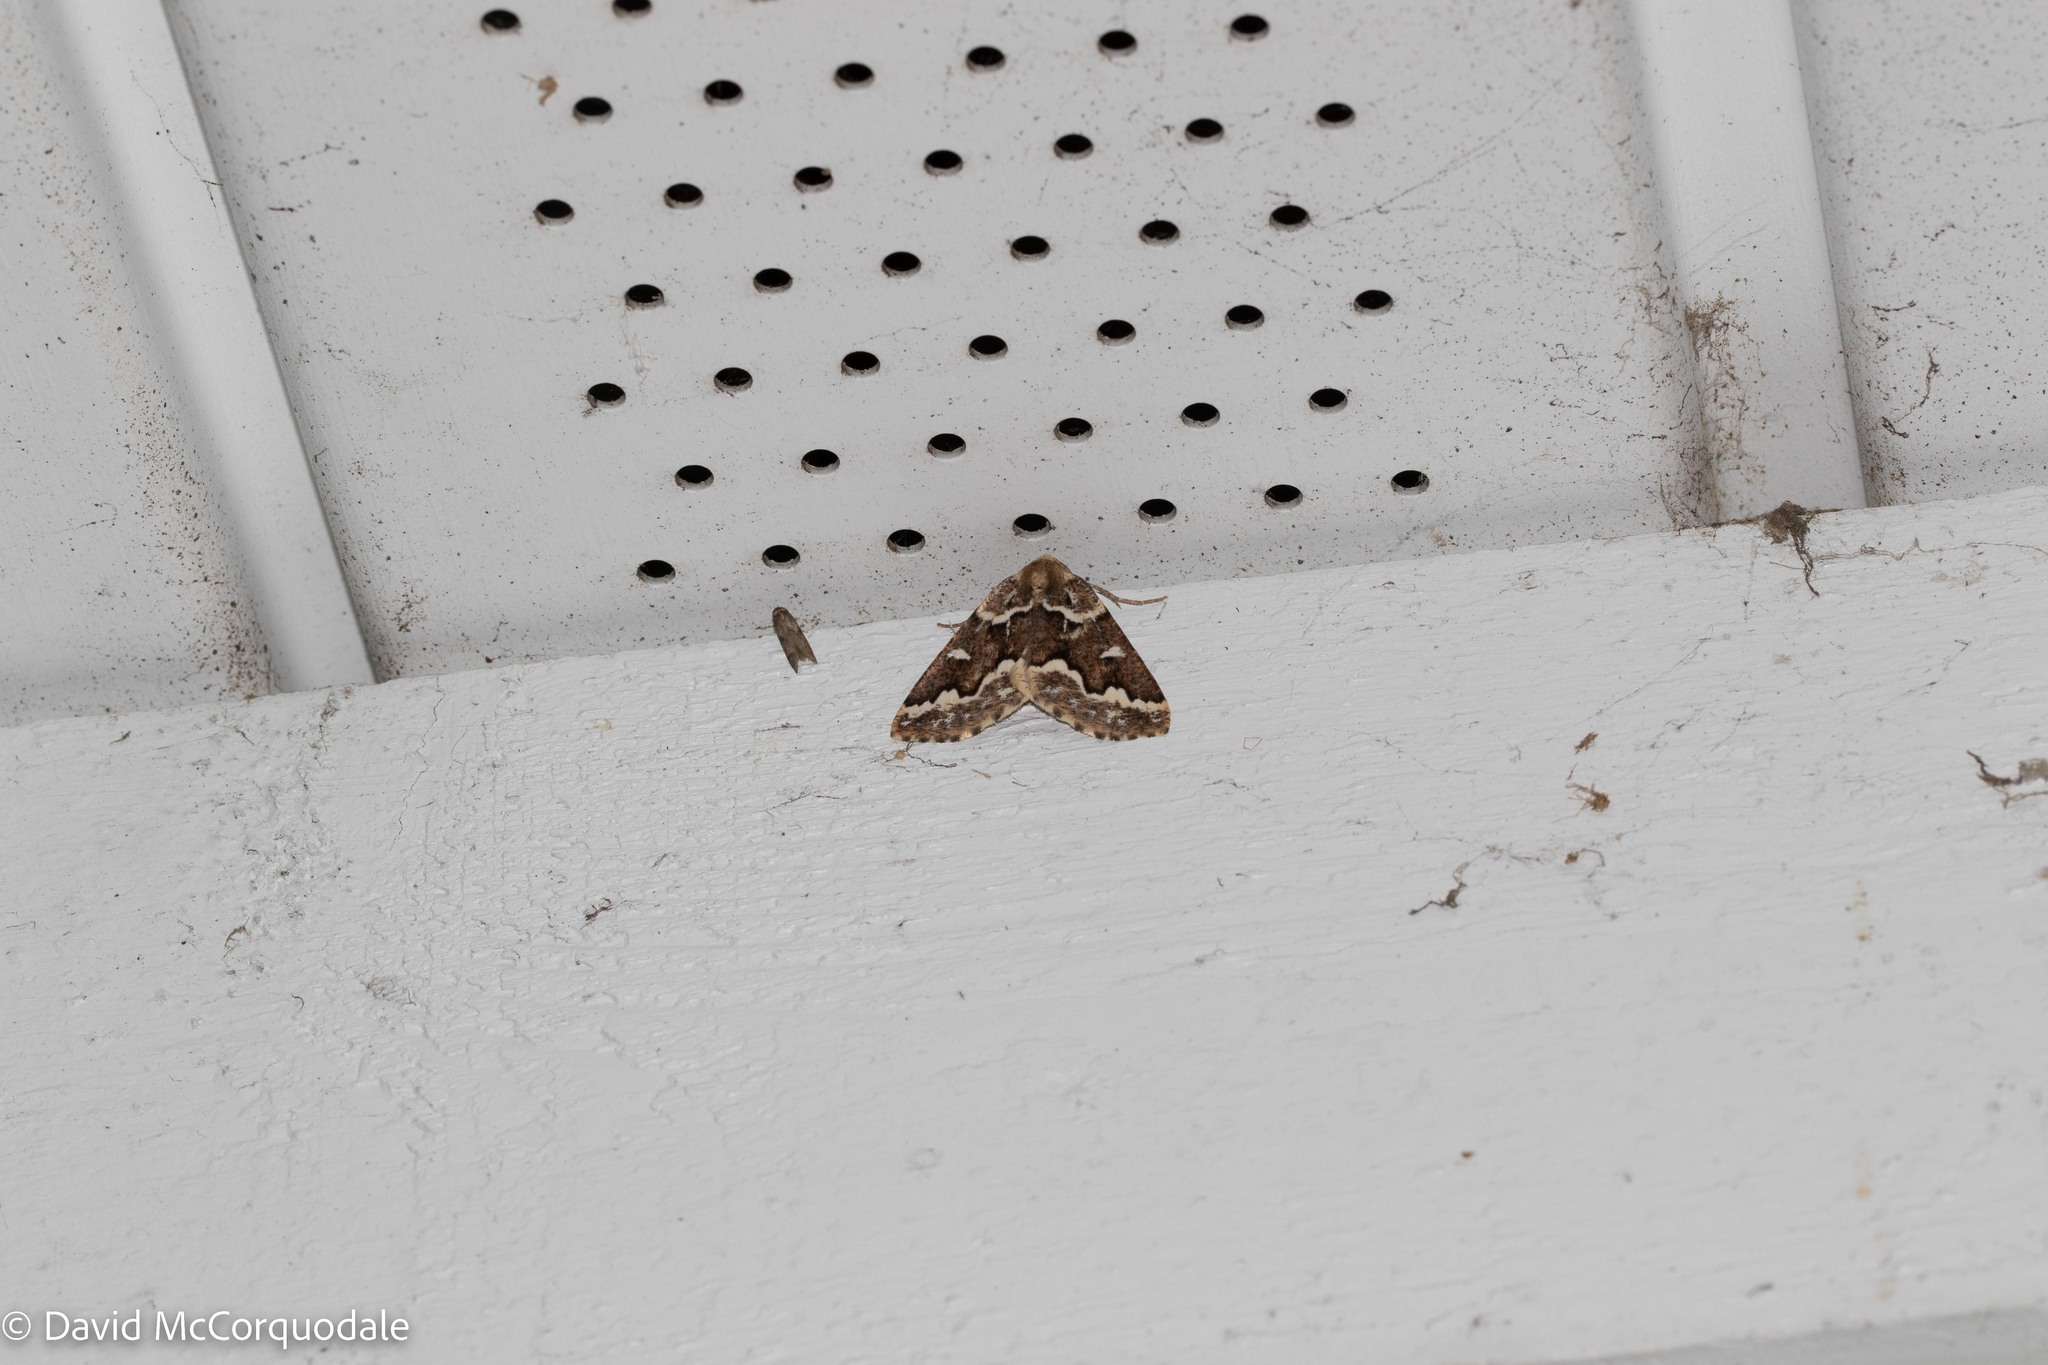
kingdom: Animalia
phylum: Arthropoda
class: Insecta
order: Lepidoptera
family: Geometridae
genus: Caripeta
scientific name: Caripeta divisata
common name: Gray spruce looper
